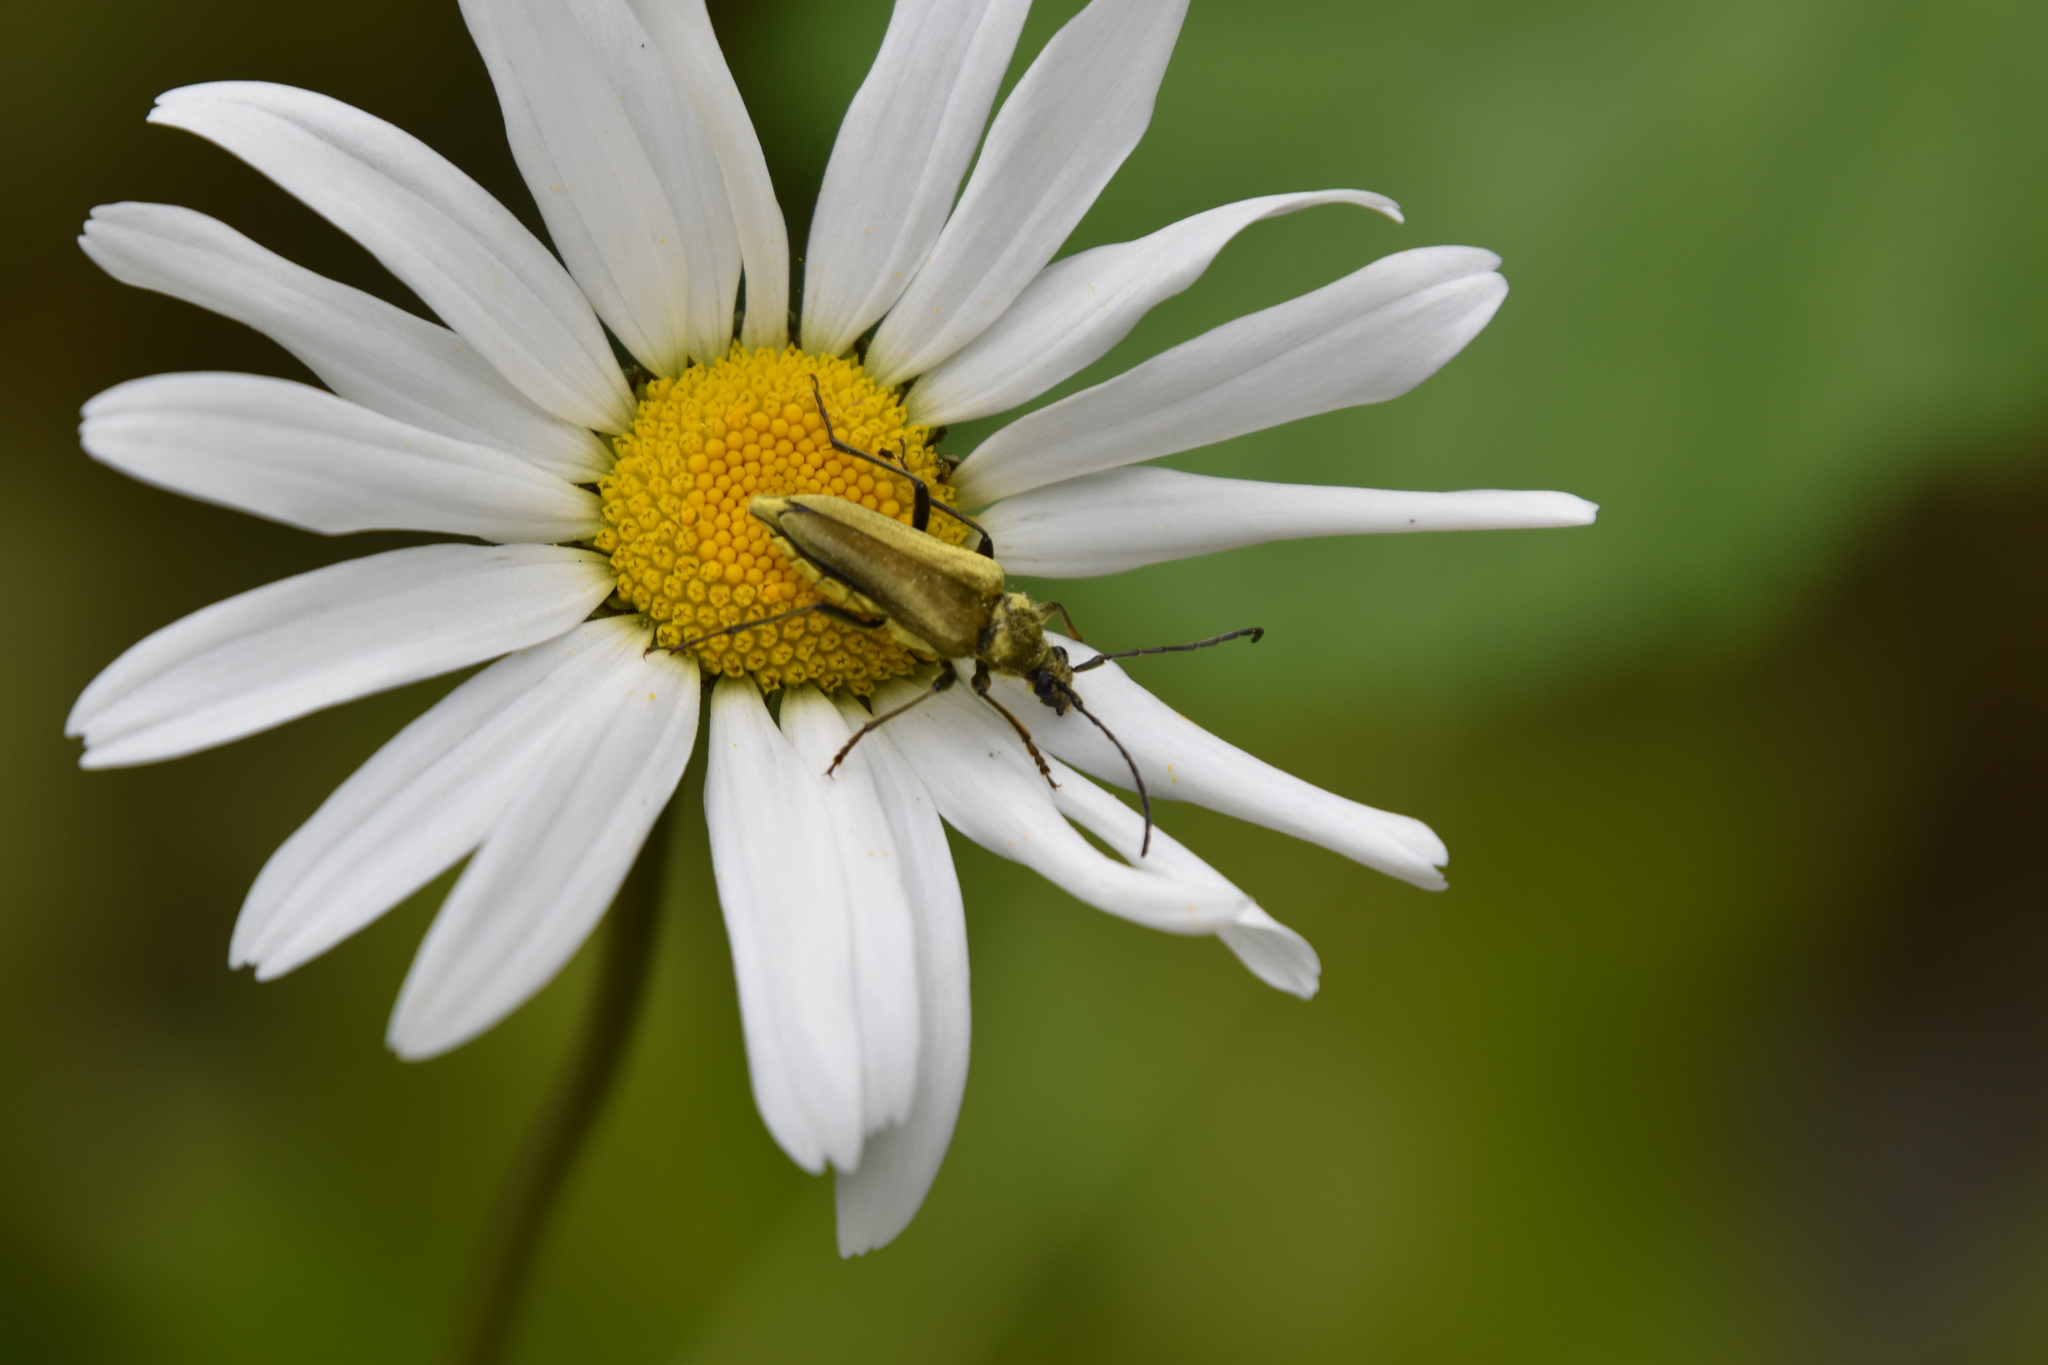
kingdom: Animalia
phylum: Arthropoda
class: Insecta
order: Coleoptera
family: Cerambycidae
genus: Cosmosalia
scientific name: Cosmosalia chrysocoma
